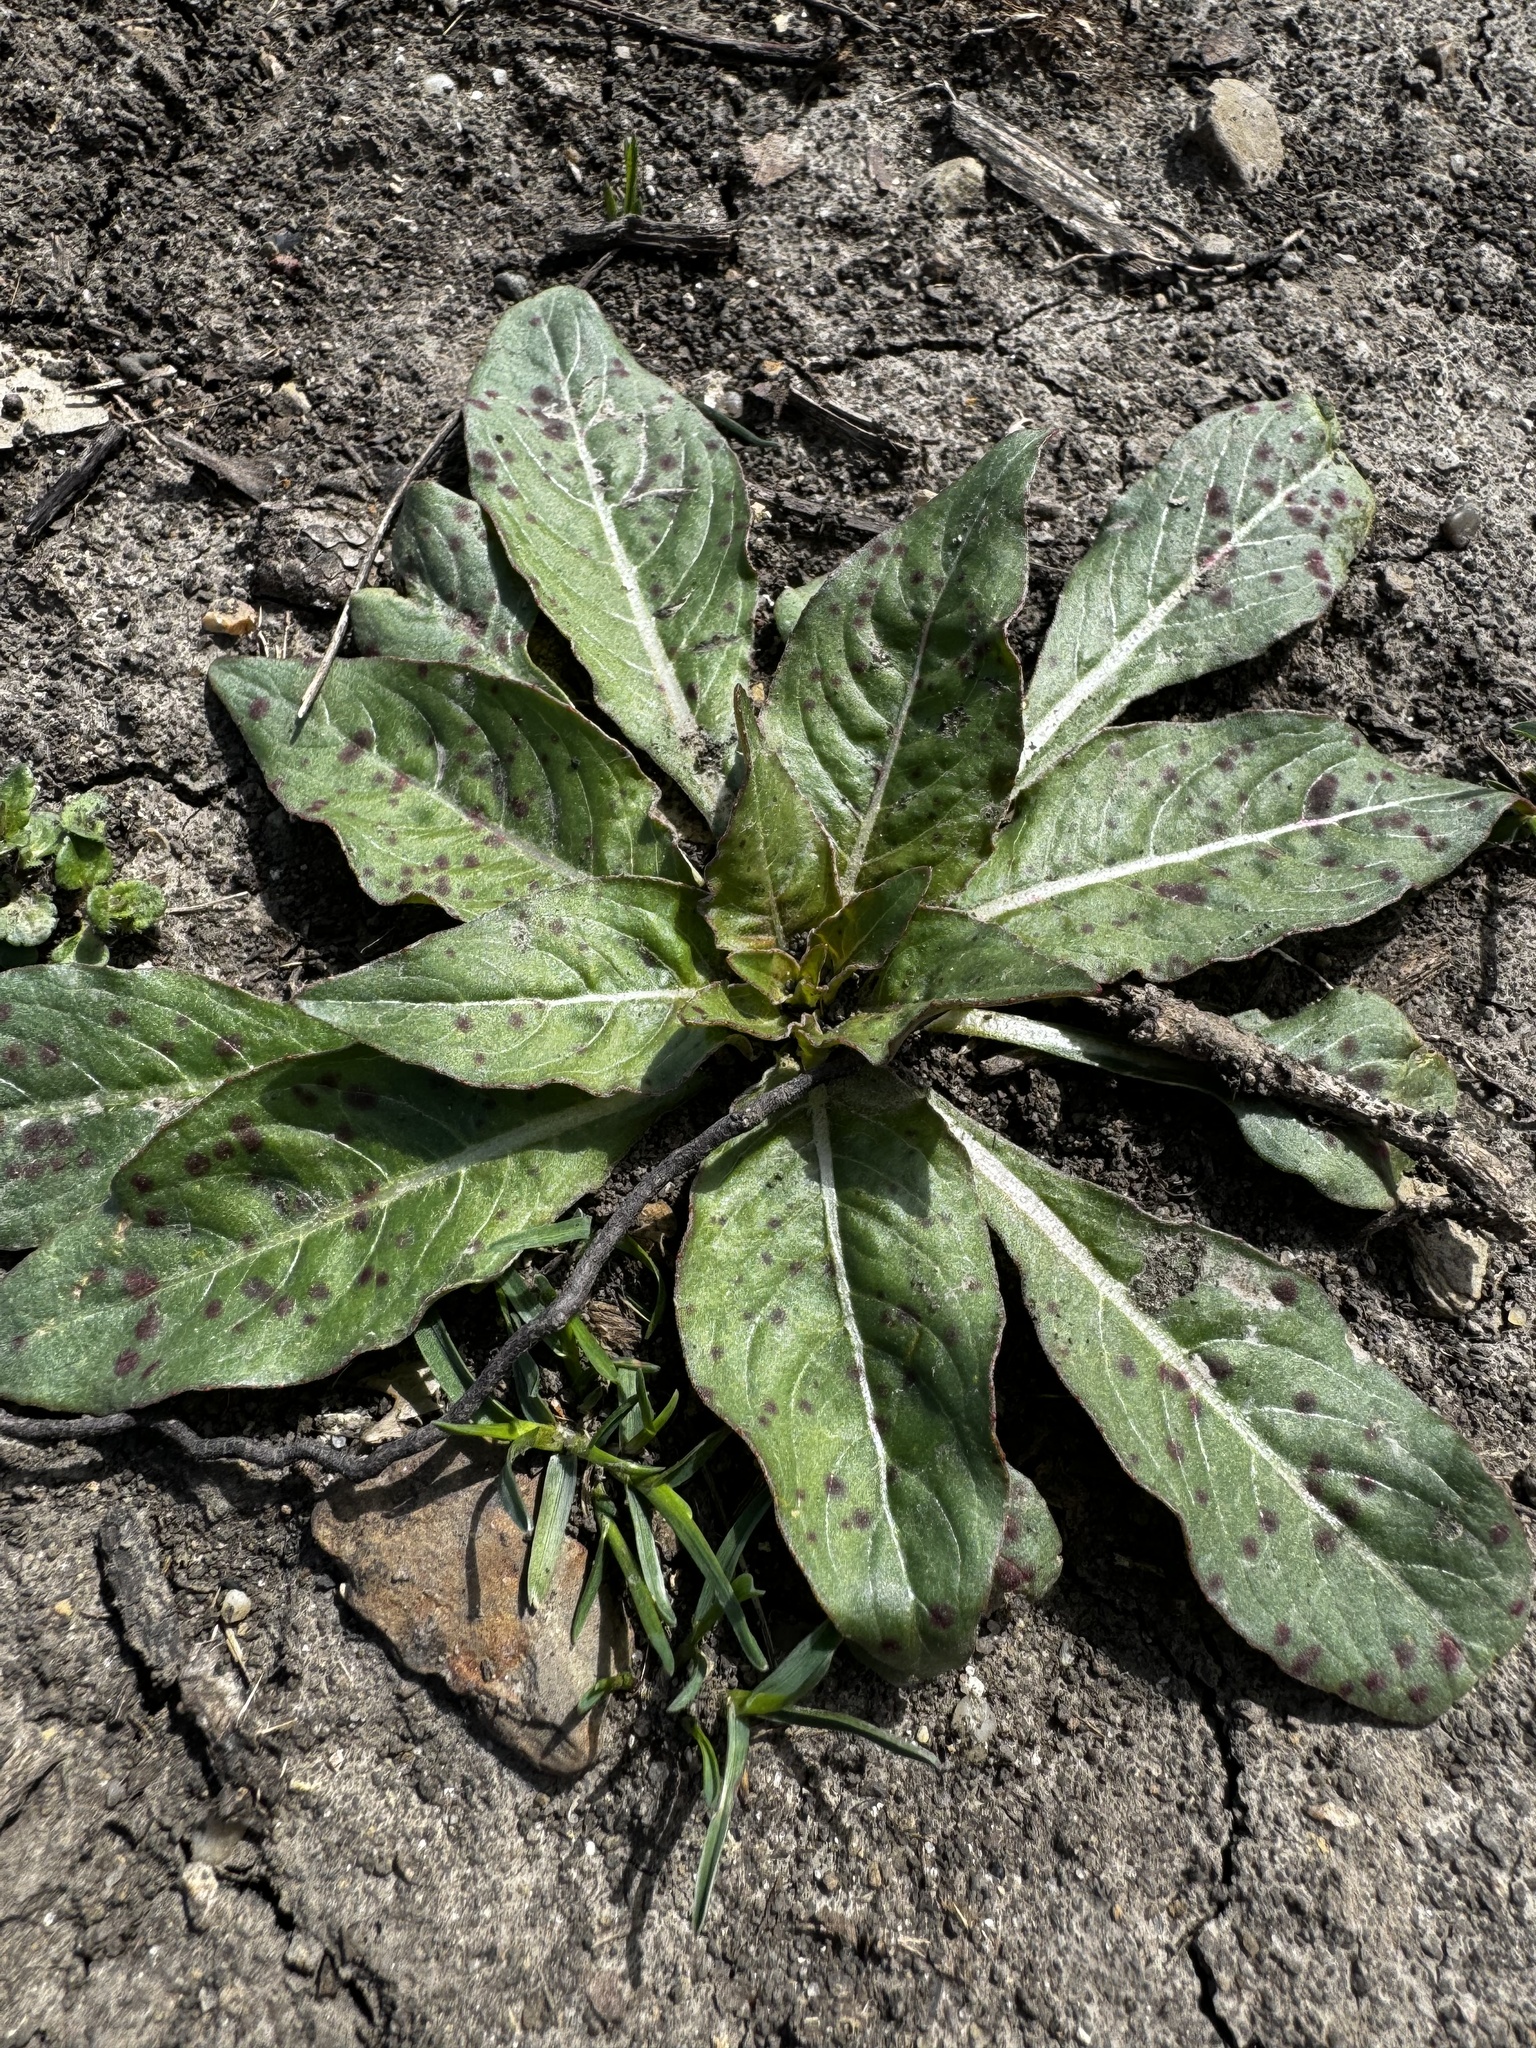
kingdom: Plantae
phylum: Tracheophyta
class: Magnoliopsida
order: Myrtales
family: Onagraceae
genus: Oenothera
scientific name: Oenothera
